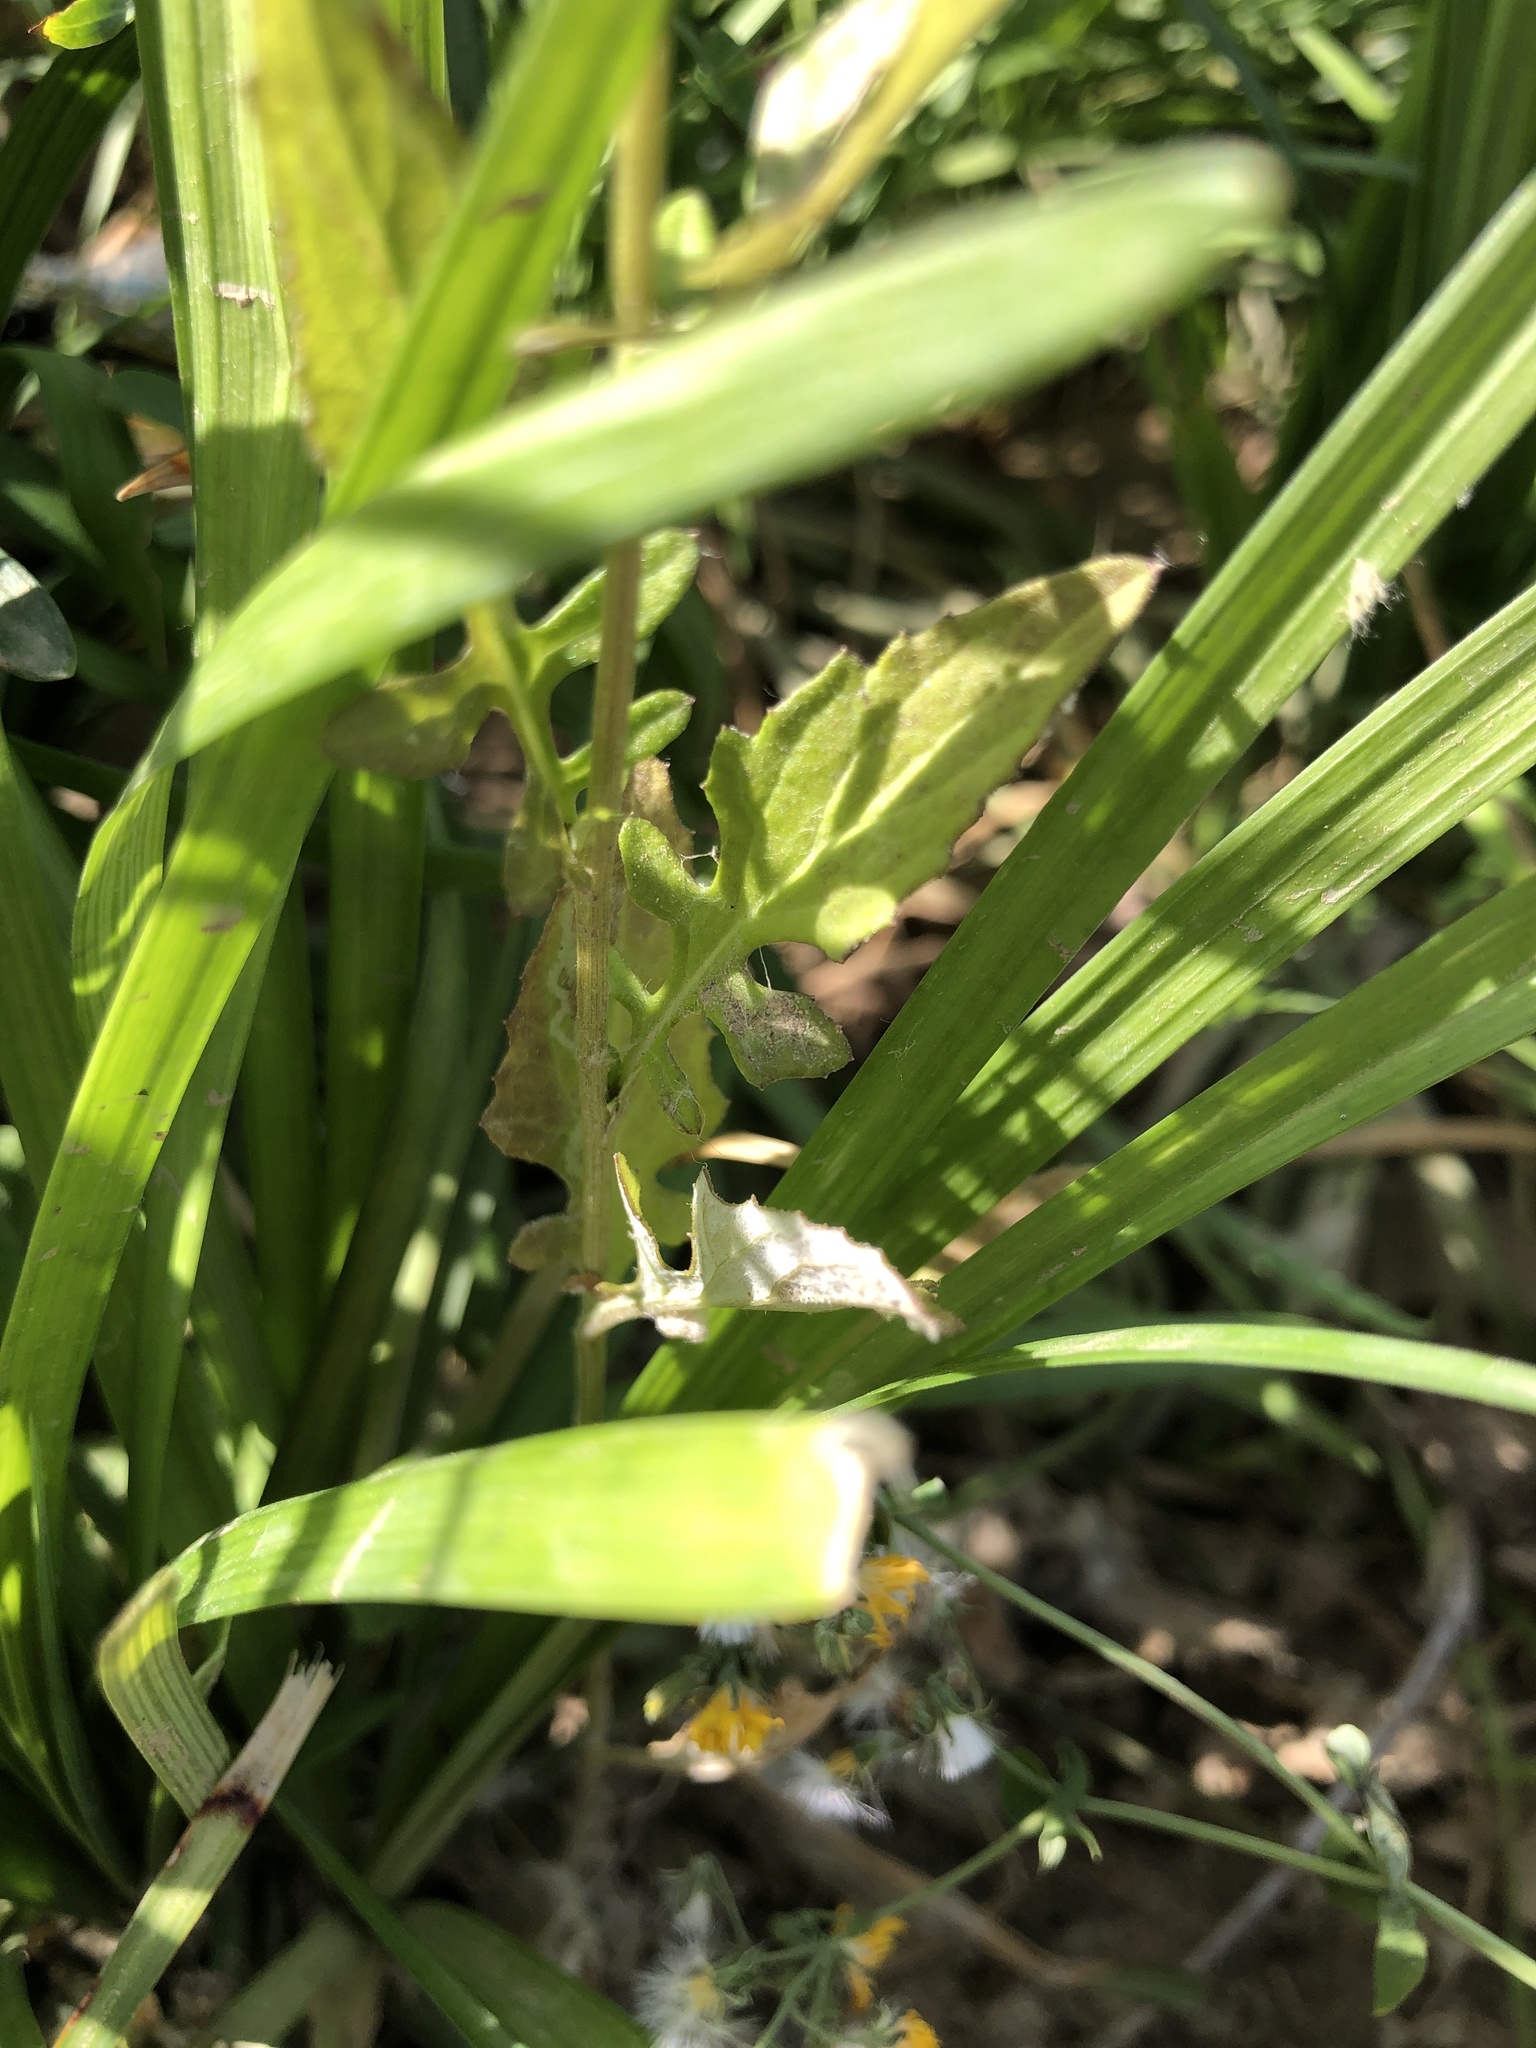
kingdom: Plantae
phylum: Tracheophyta
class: Magnoliopsida
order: Asterales
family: Asteraceae
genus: Saussurea
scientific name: Saussurea lyrata
